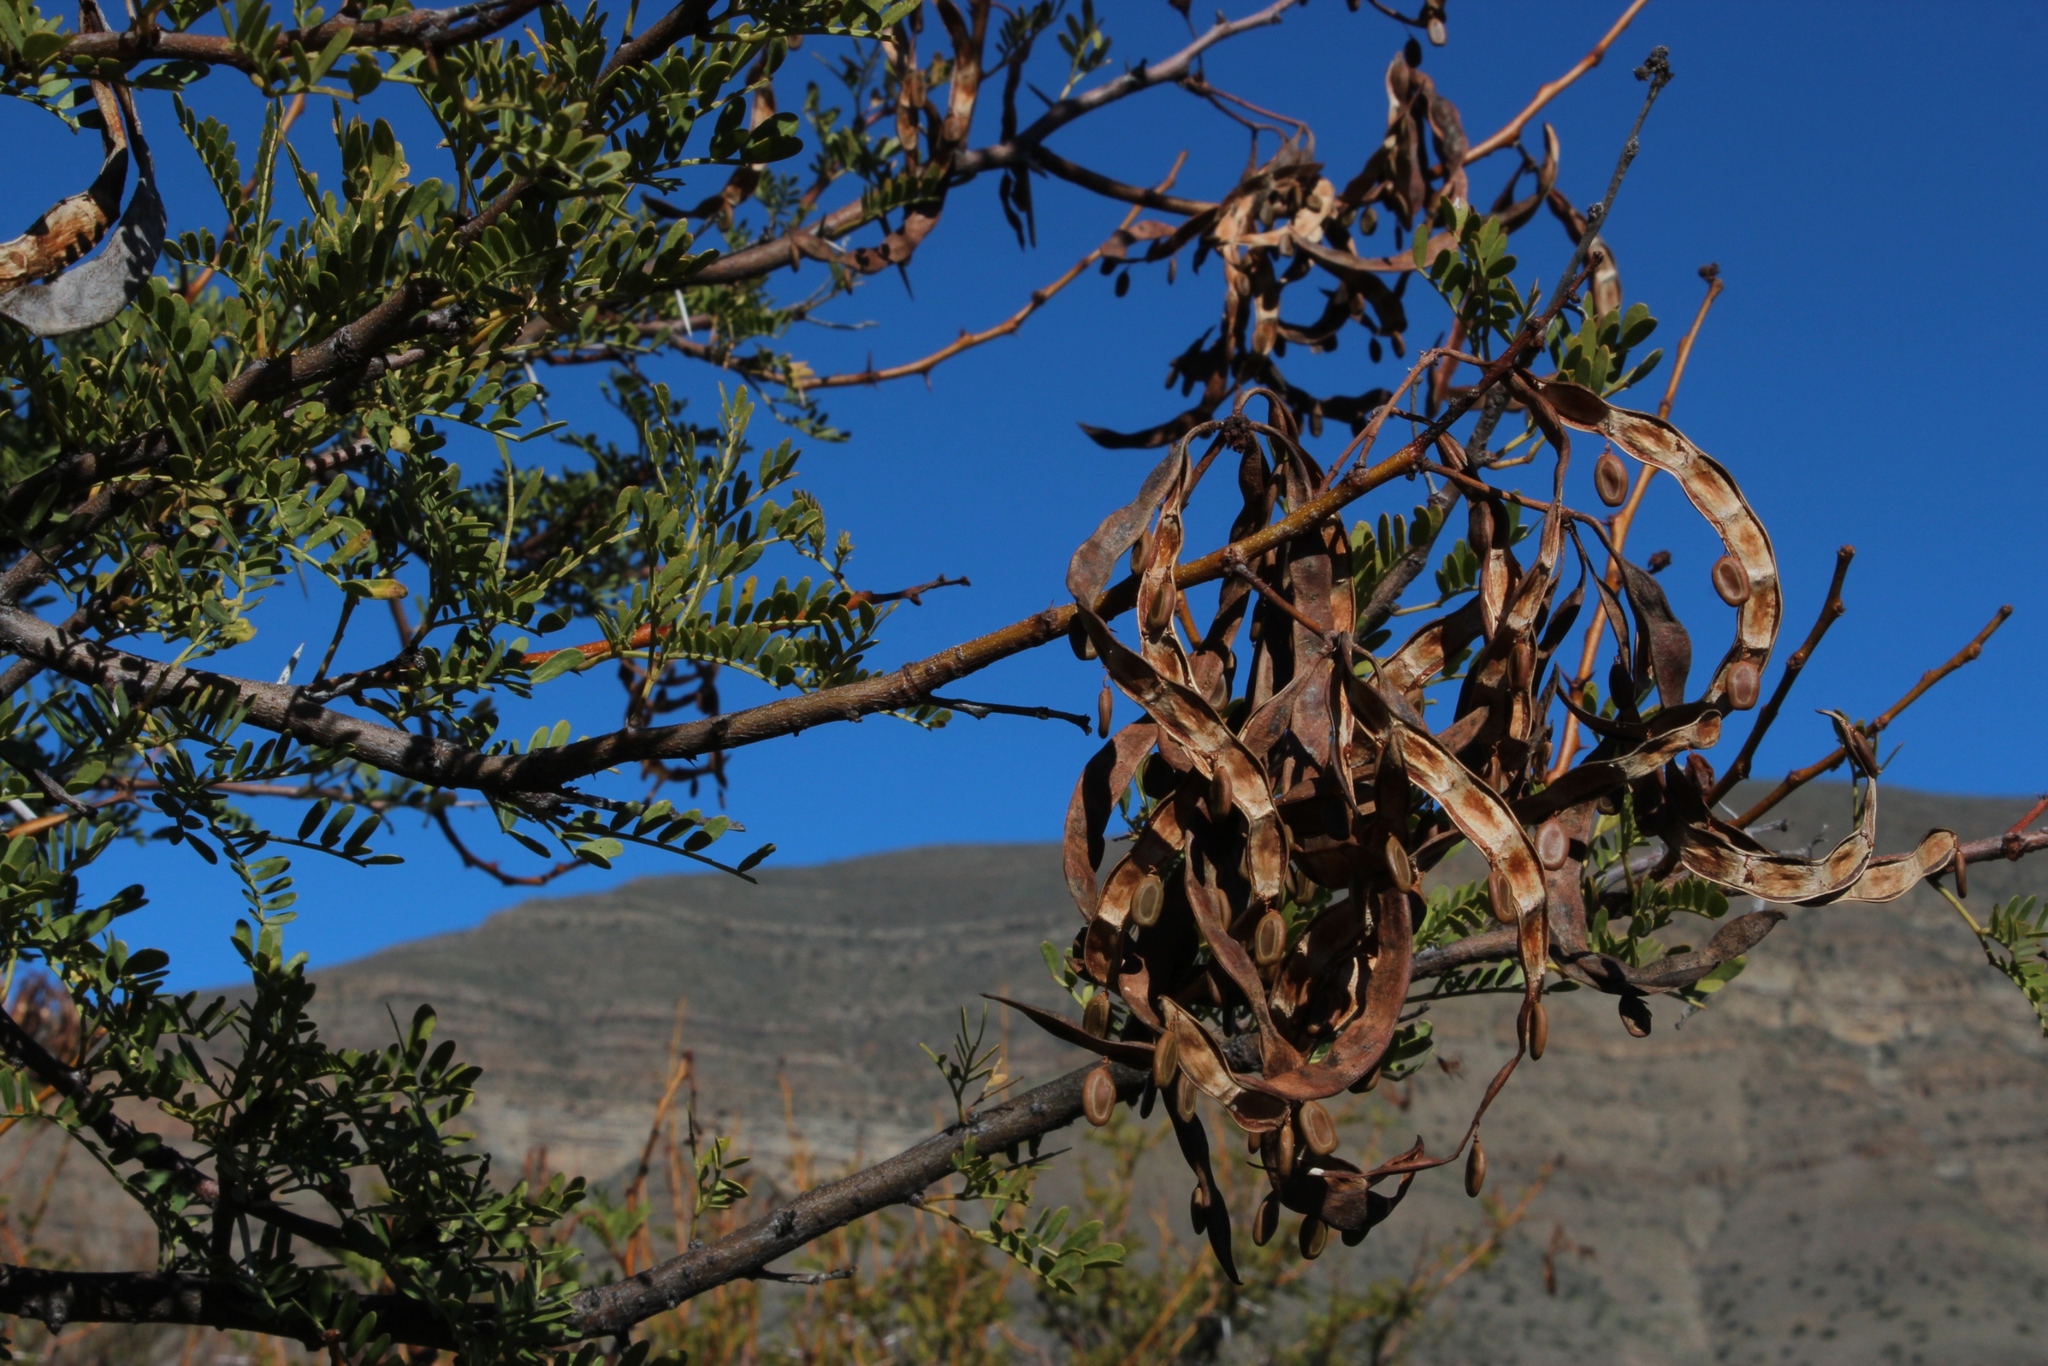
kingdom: Plantae
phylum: Tracheophyta
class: Magnoliopsida
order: Fabales
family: Fabaceae
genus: Vachellia
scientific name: Vachellia karroo
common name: Sweet thorn
